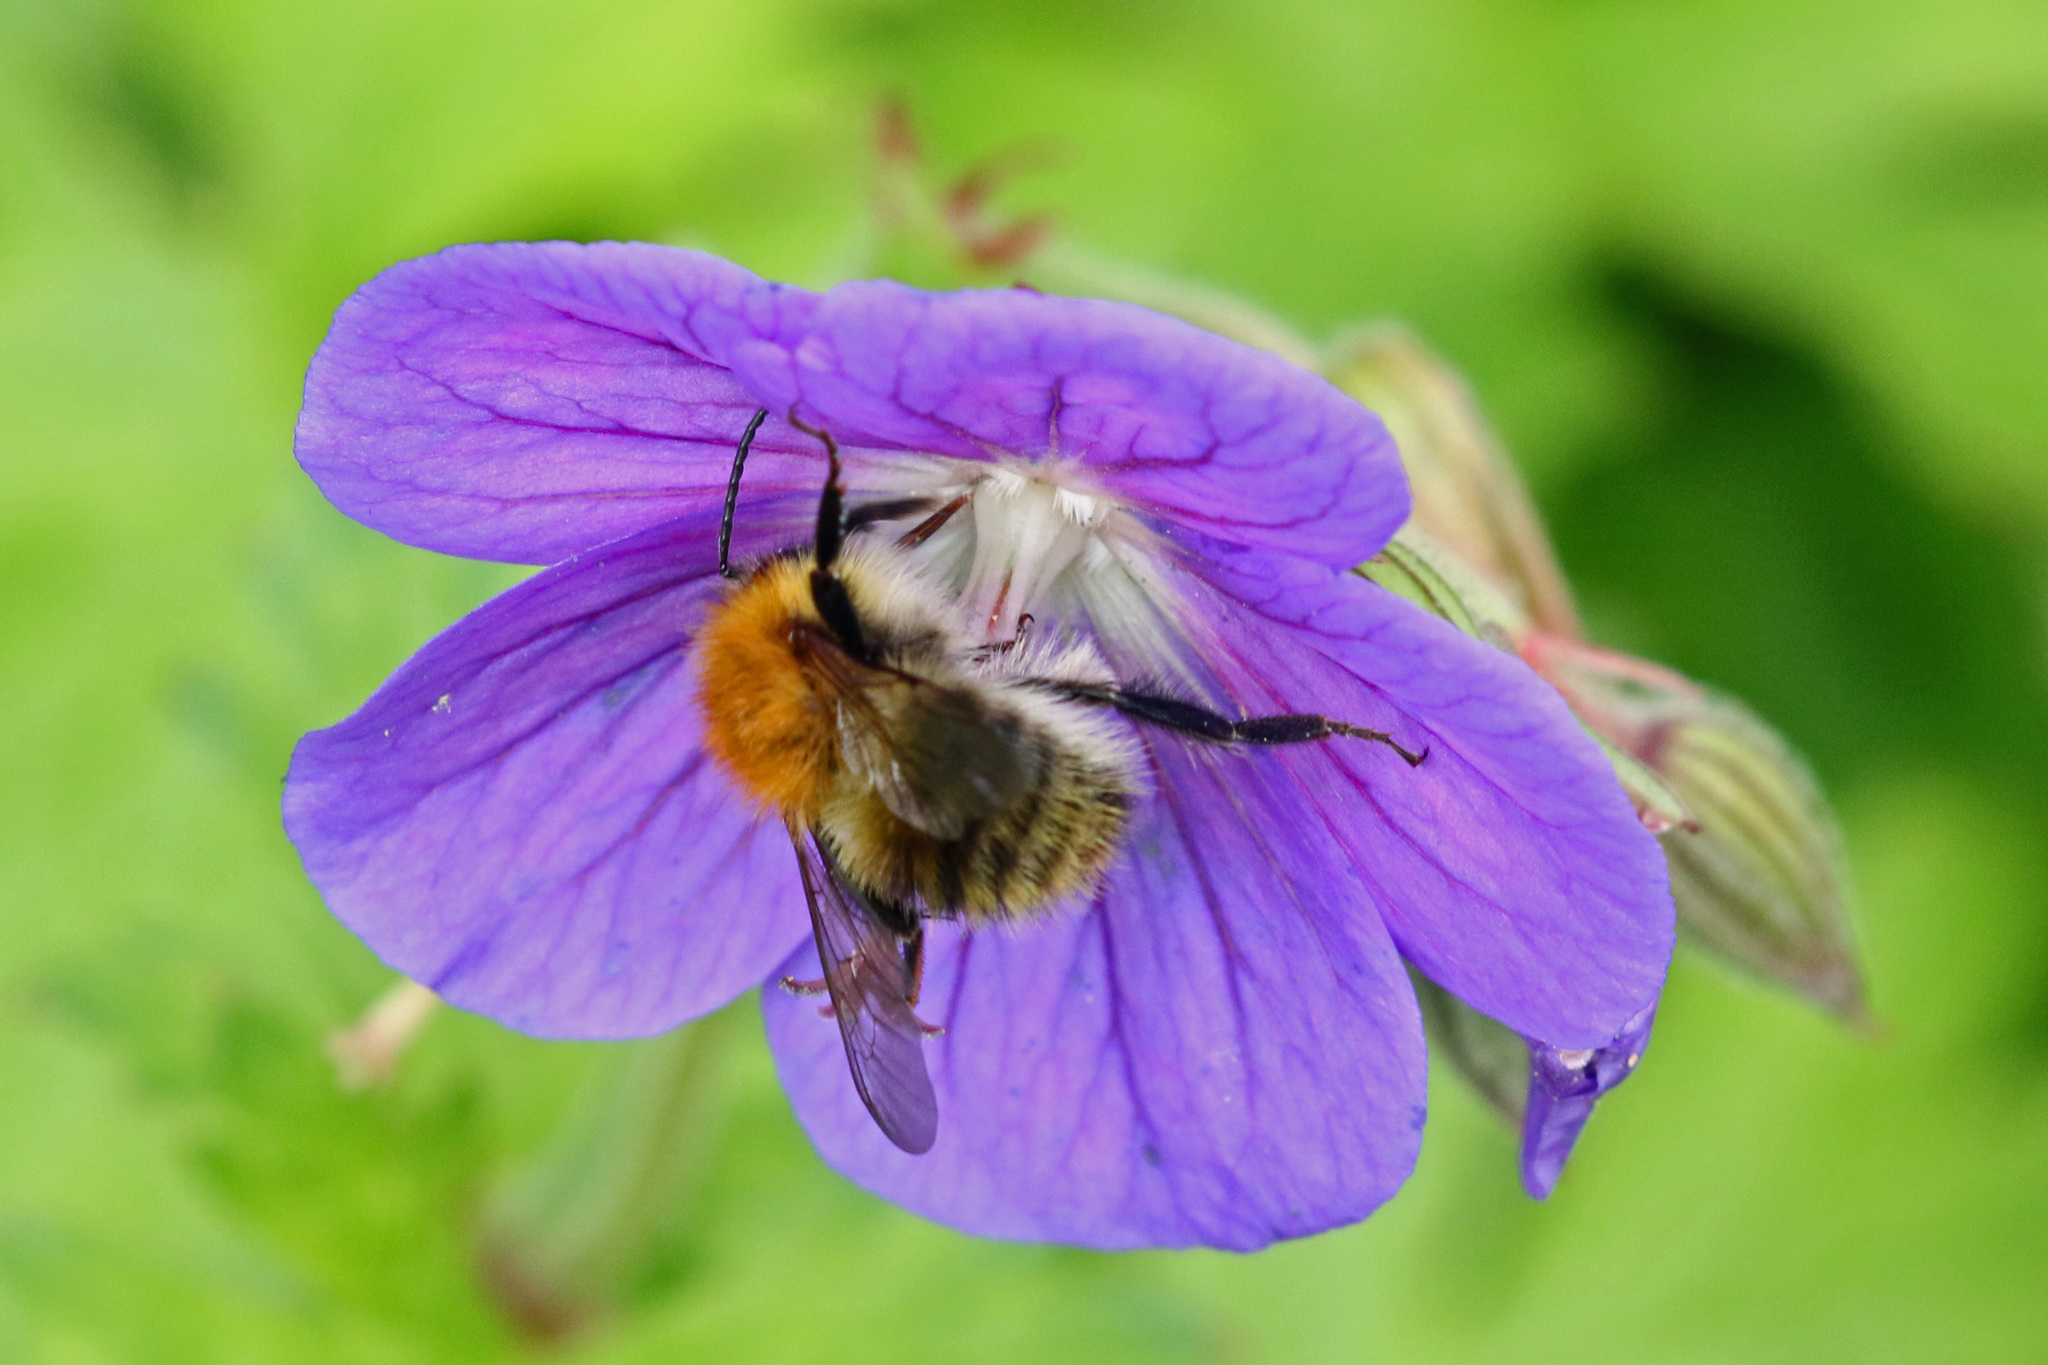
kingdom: Animalia
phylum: Arthropoda
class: Insecta
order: Hymenoptera
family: Apidae
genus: Bombus
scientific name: Bombus pascuorum
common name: Common carder bee
